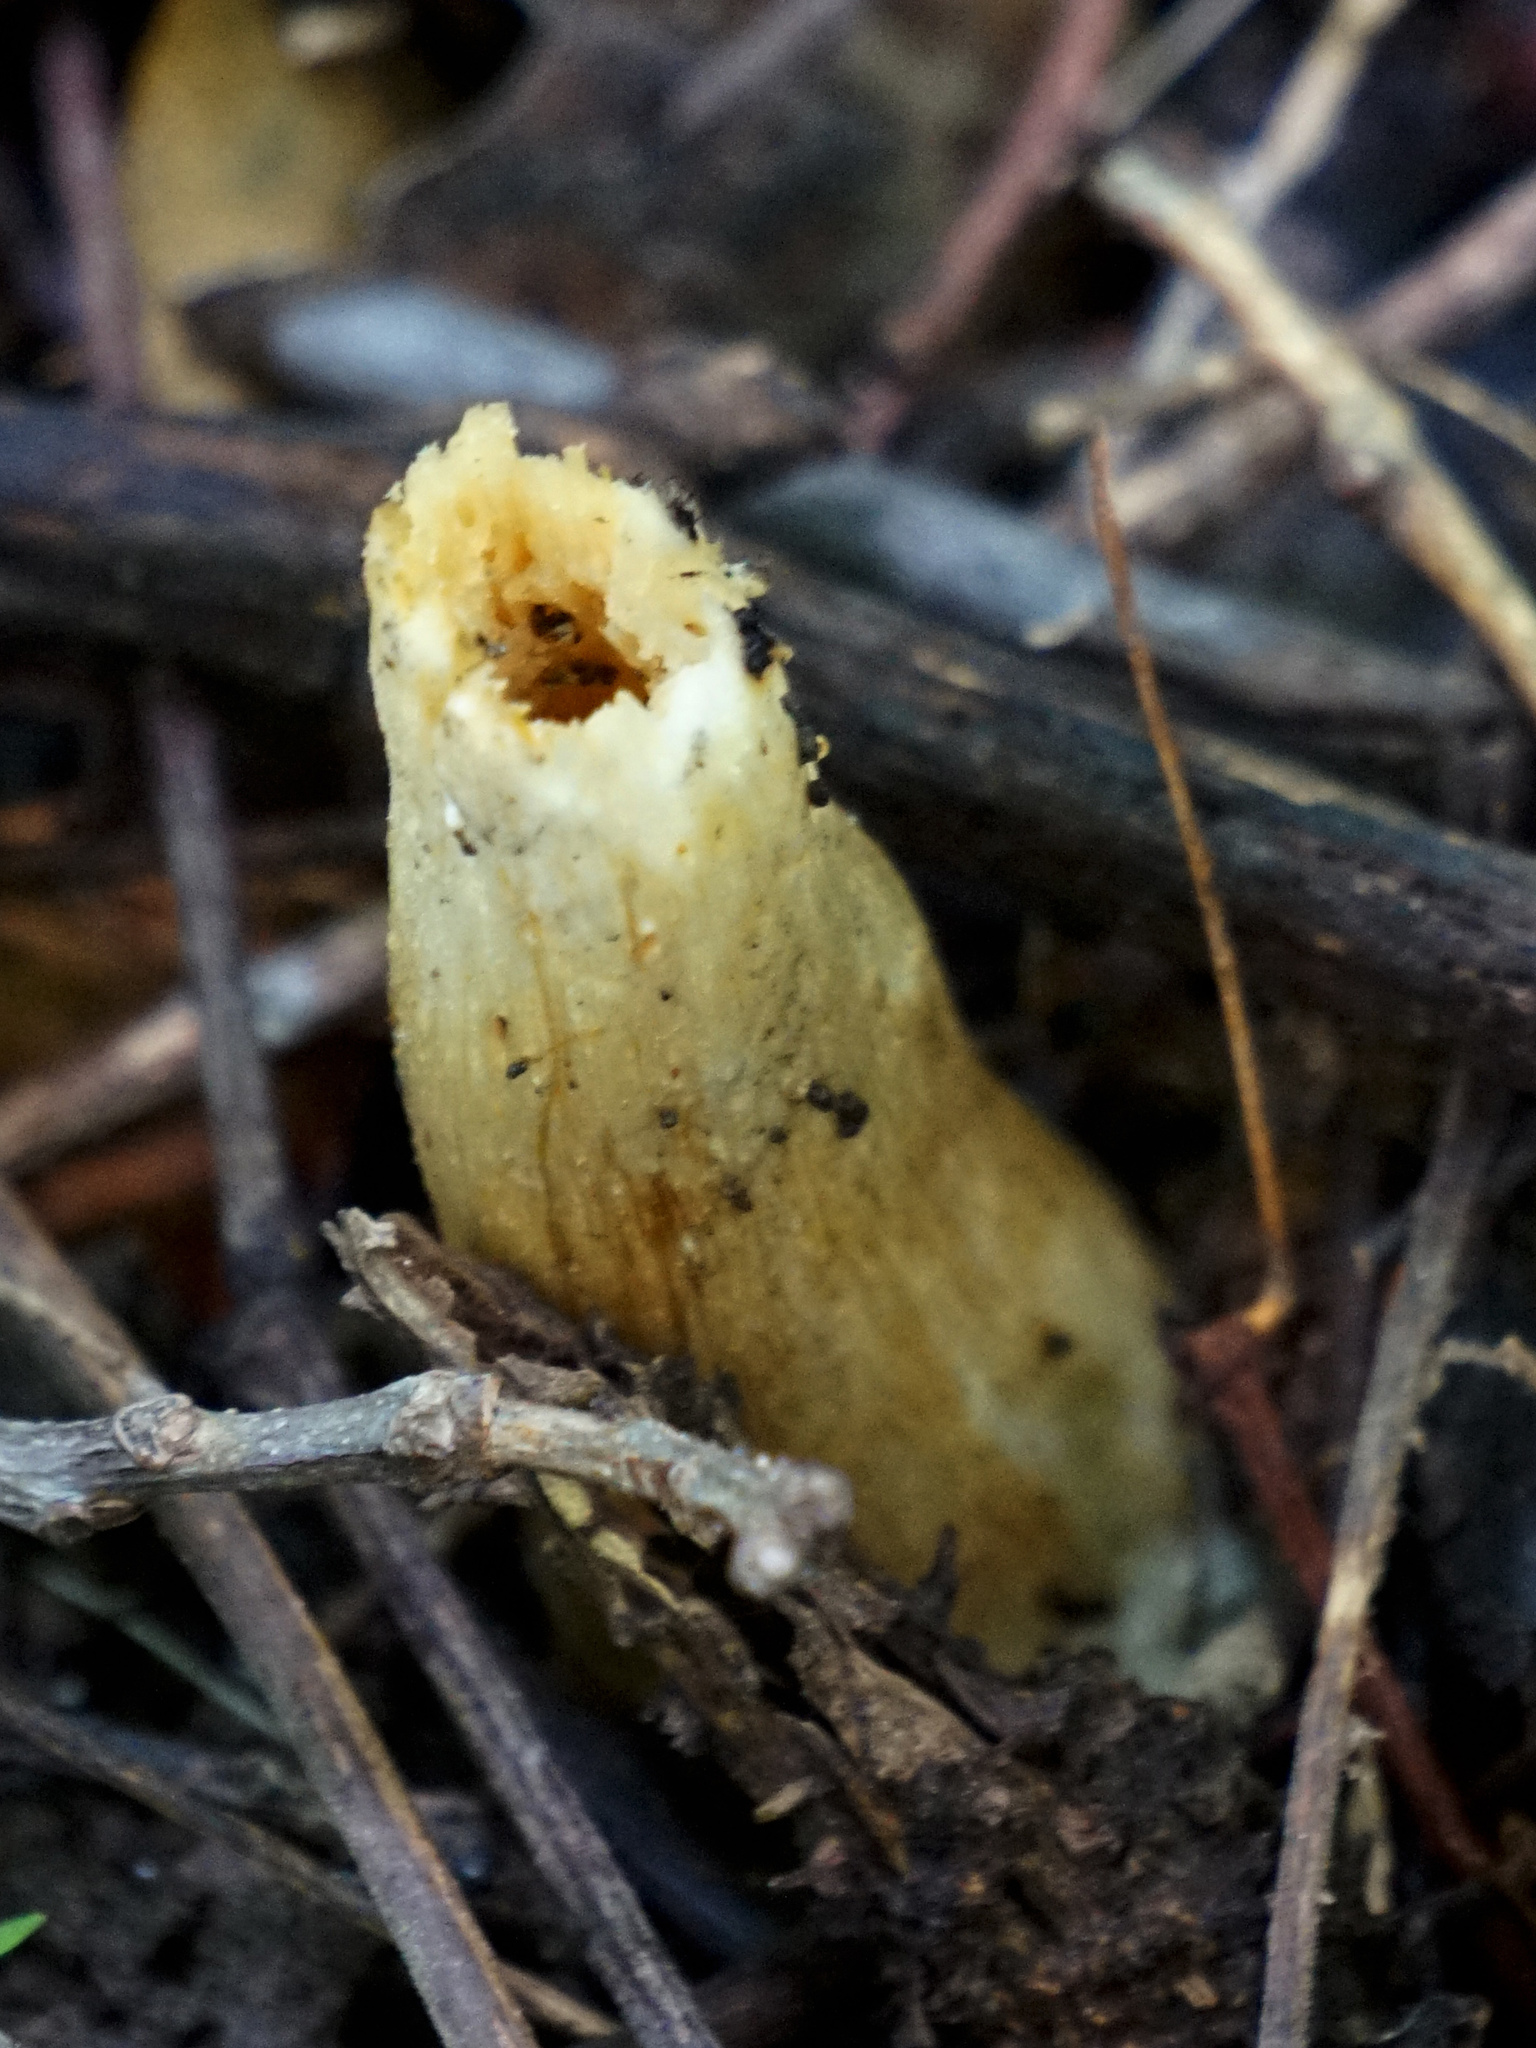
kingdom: Fungi
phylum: Ascomycota
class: Pezizomycetes
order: Pezizales
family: Morchellaceae
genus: Morchella
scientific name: Morchella punctipes
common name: Half-free morel
